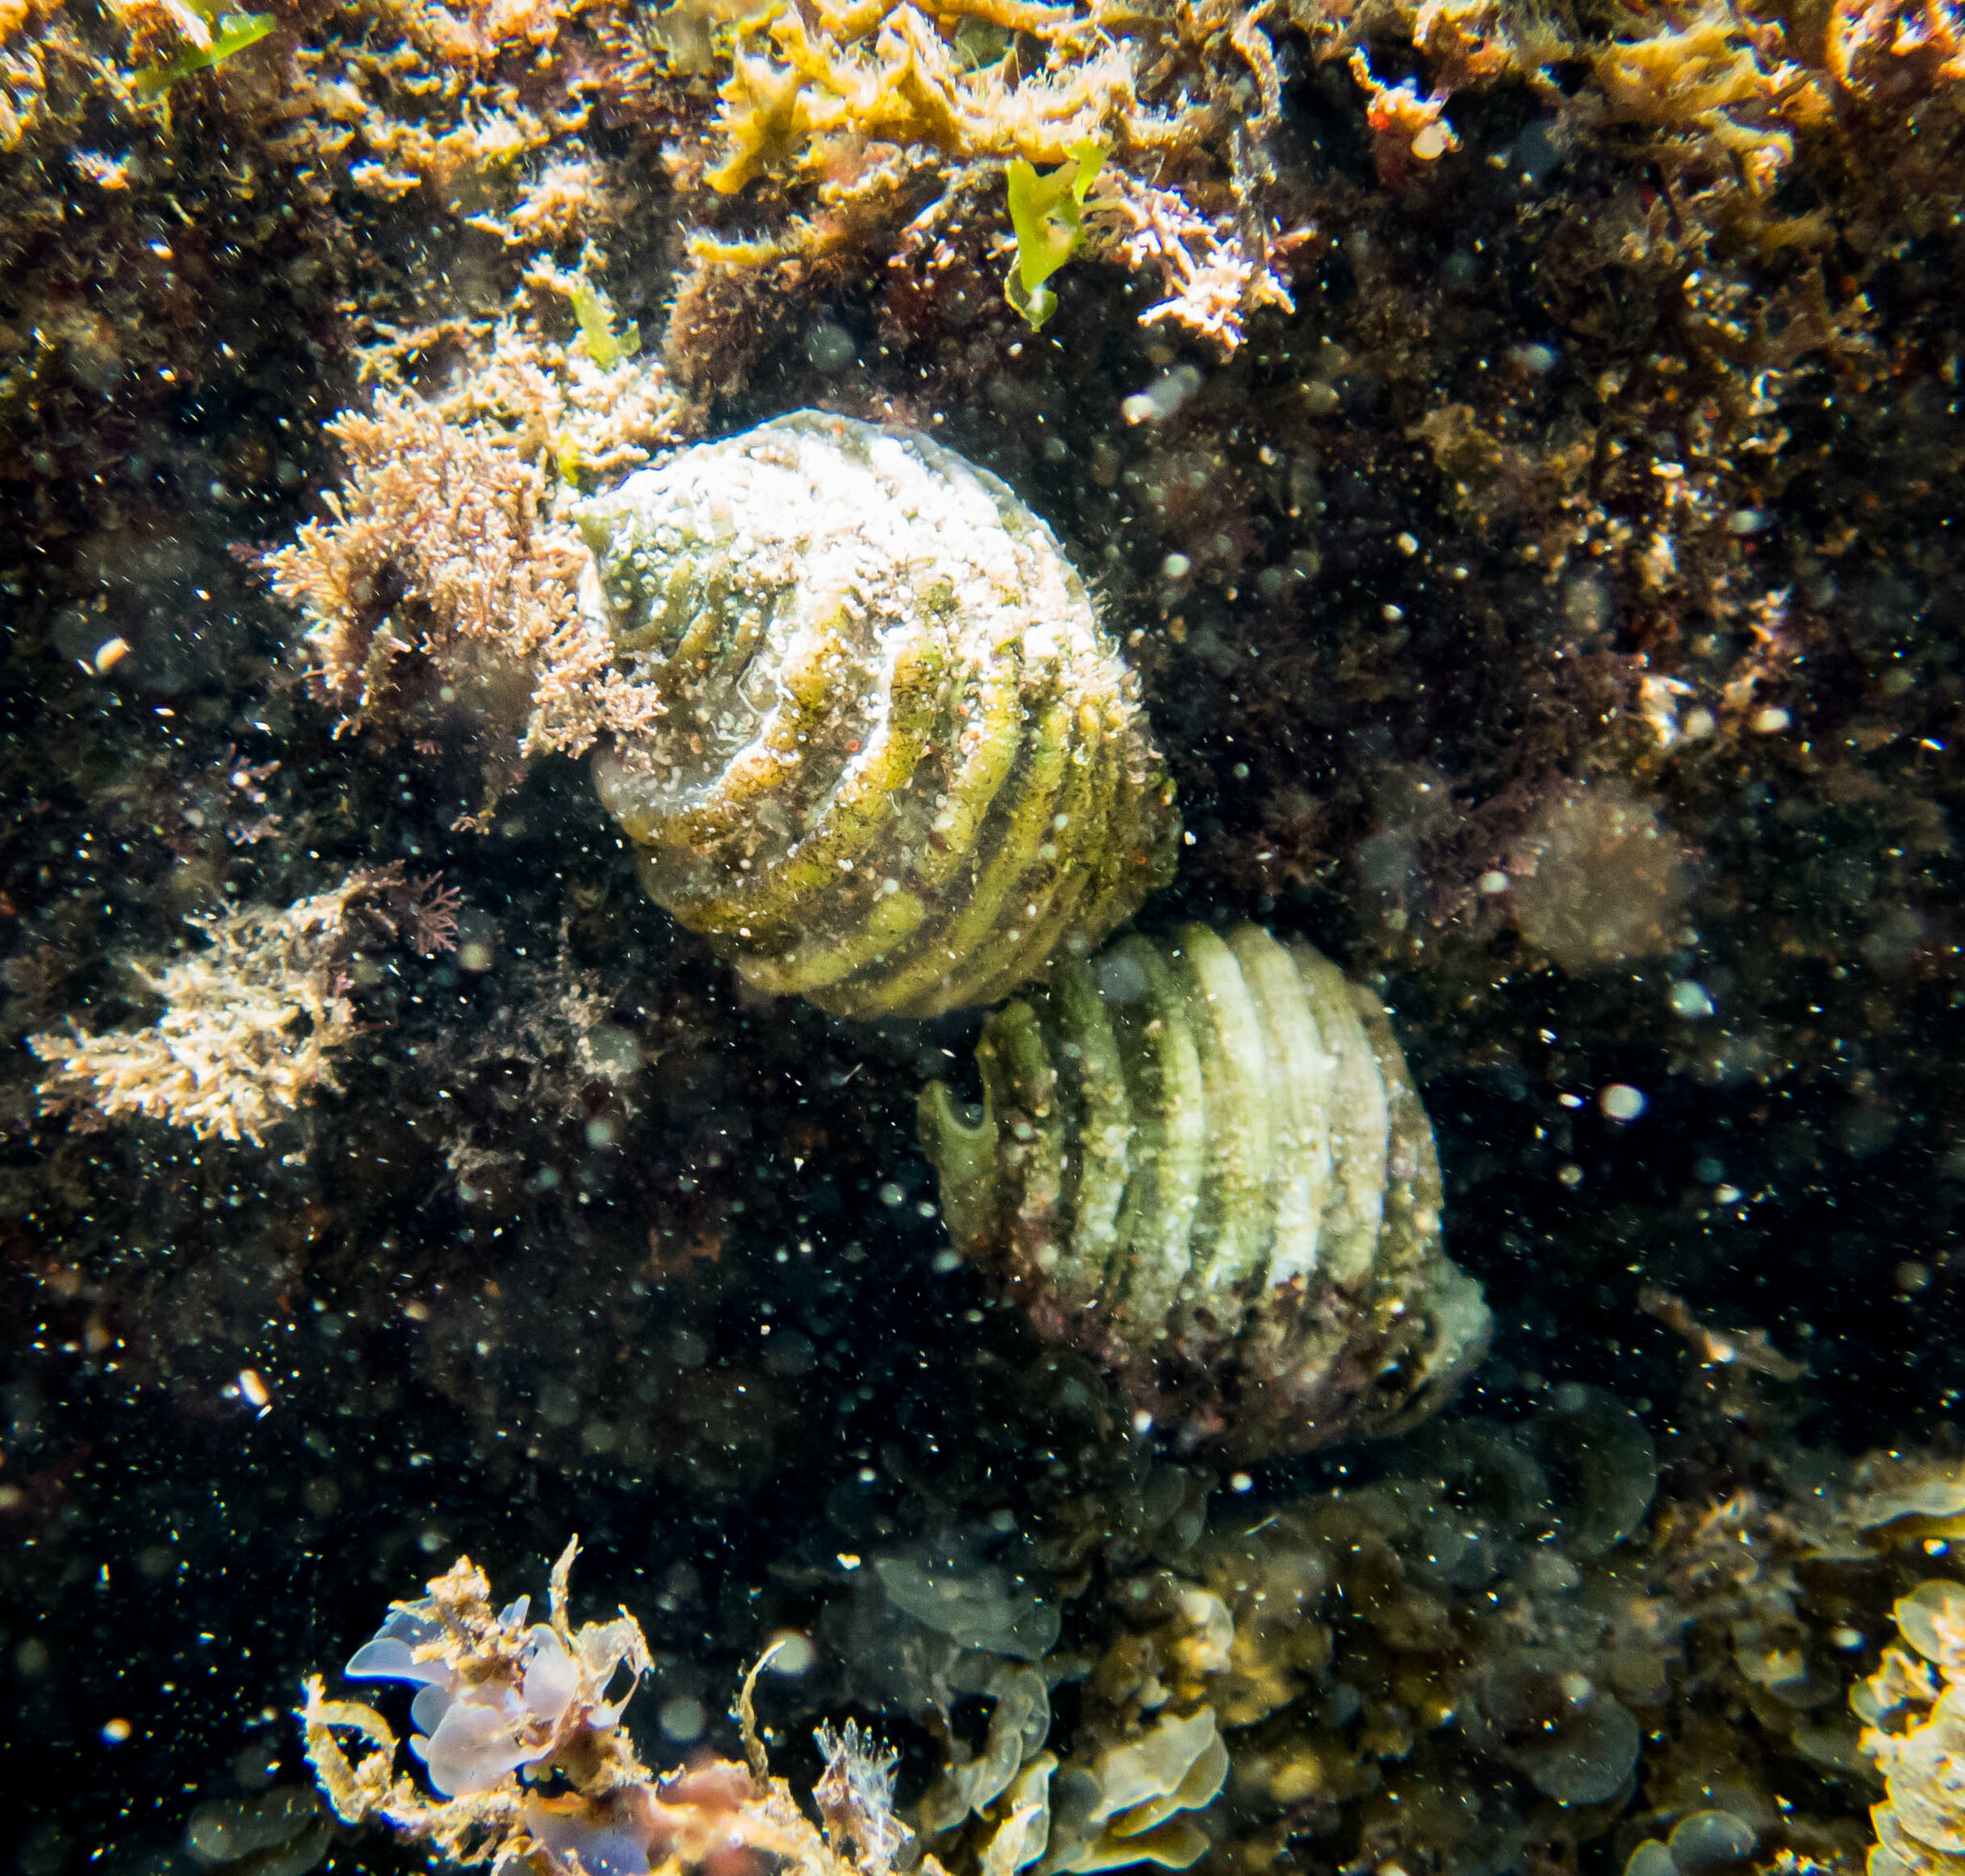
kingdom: Animalia
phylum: Mollusca
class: Gastropoda
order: Neogastropoda
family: Muricidae
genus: Dicathais
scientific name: Dicathais orbita
